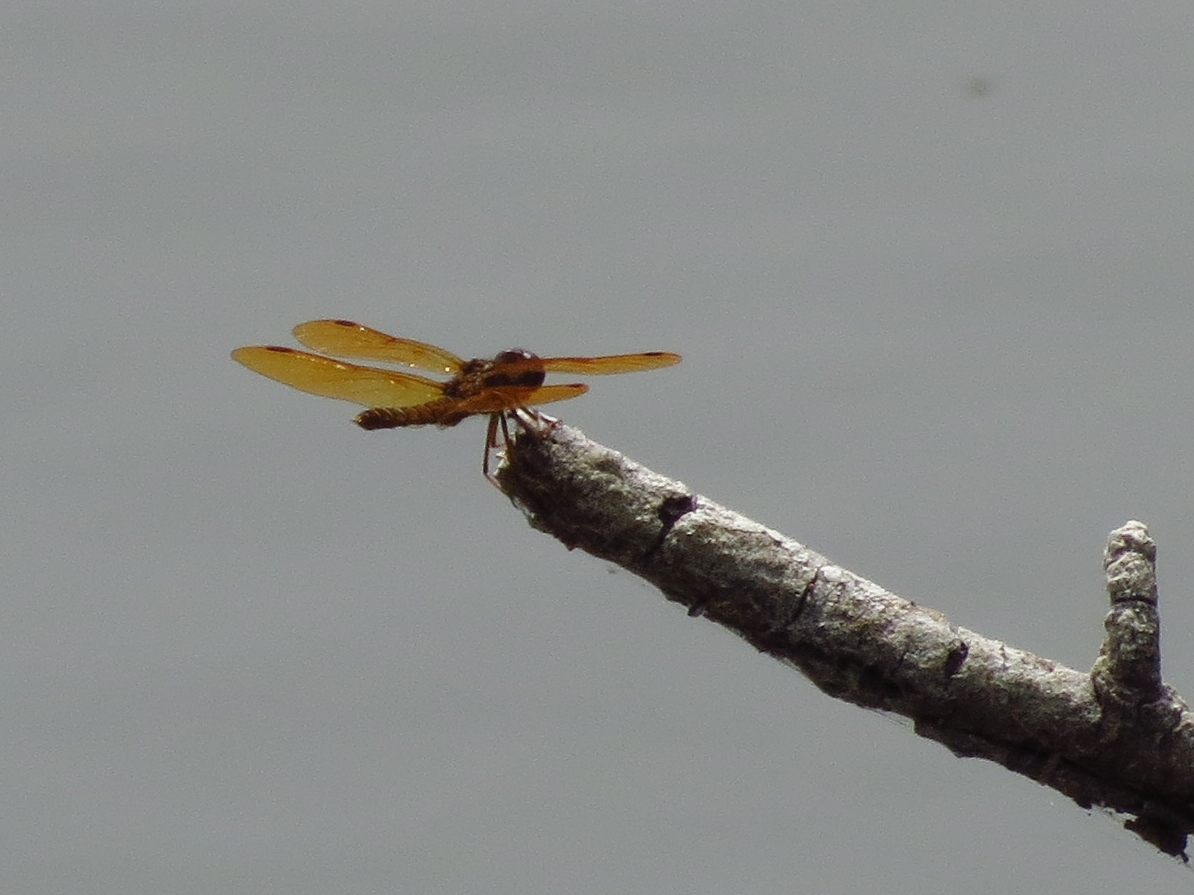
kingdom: Animalia
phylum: Arthropoda
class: Insecta
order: Odonata
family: Libellulidae
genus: Perithemis
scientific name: Perithemis tenera
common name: Eastern amberwing
